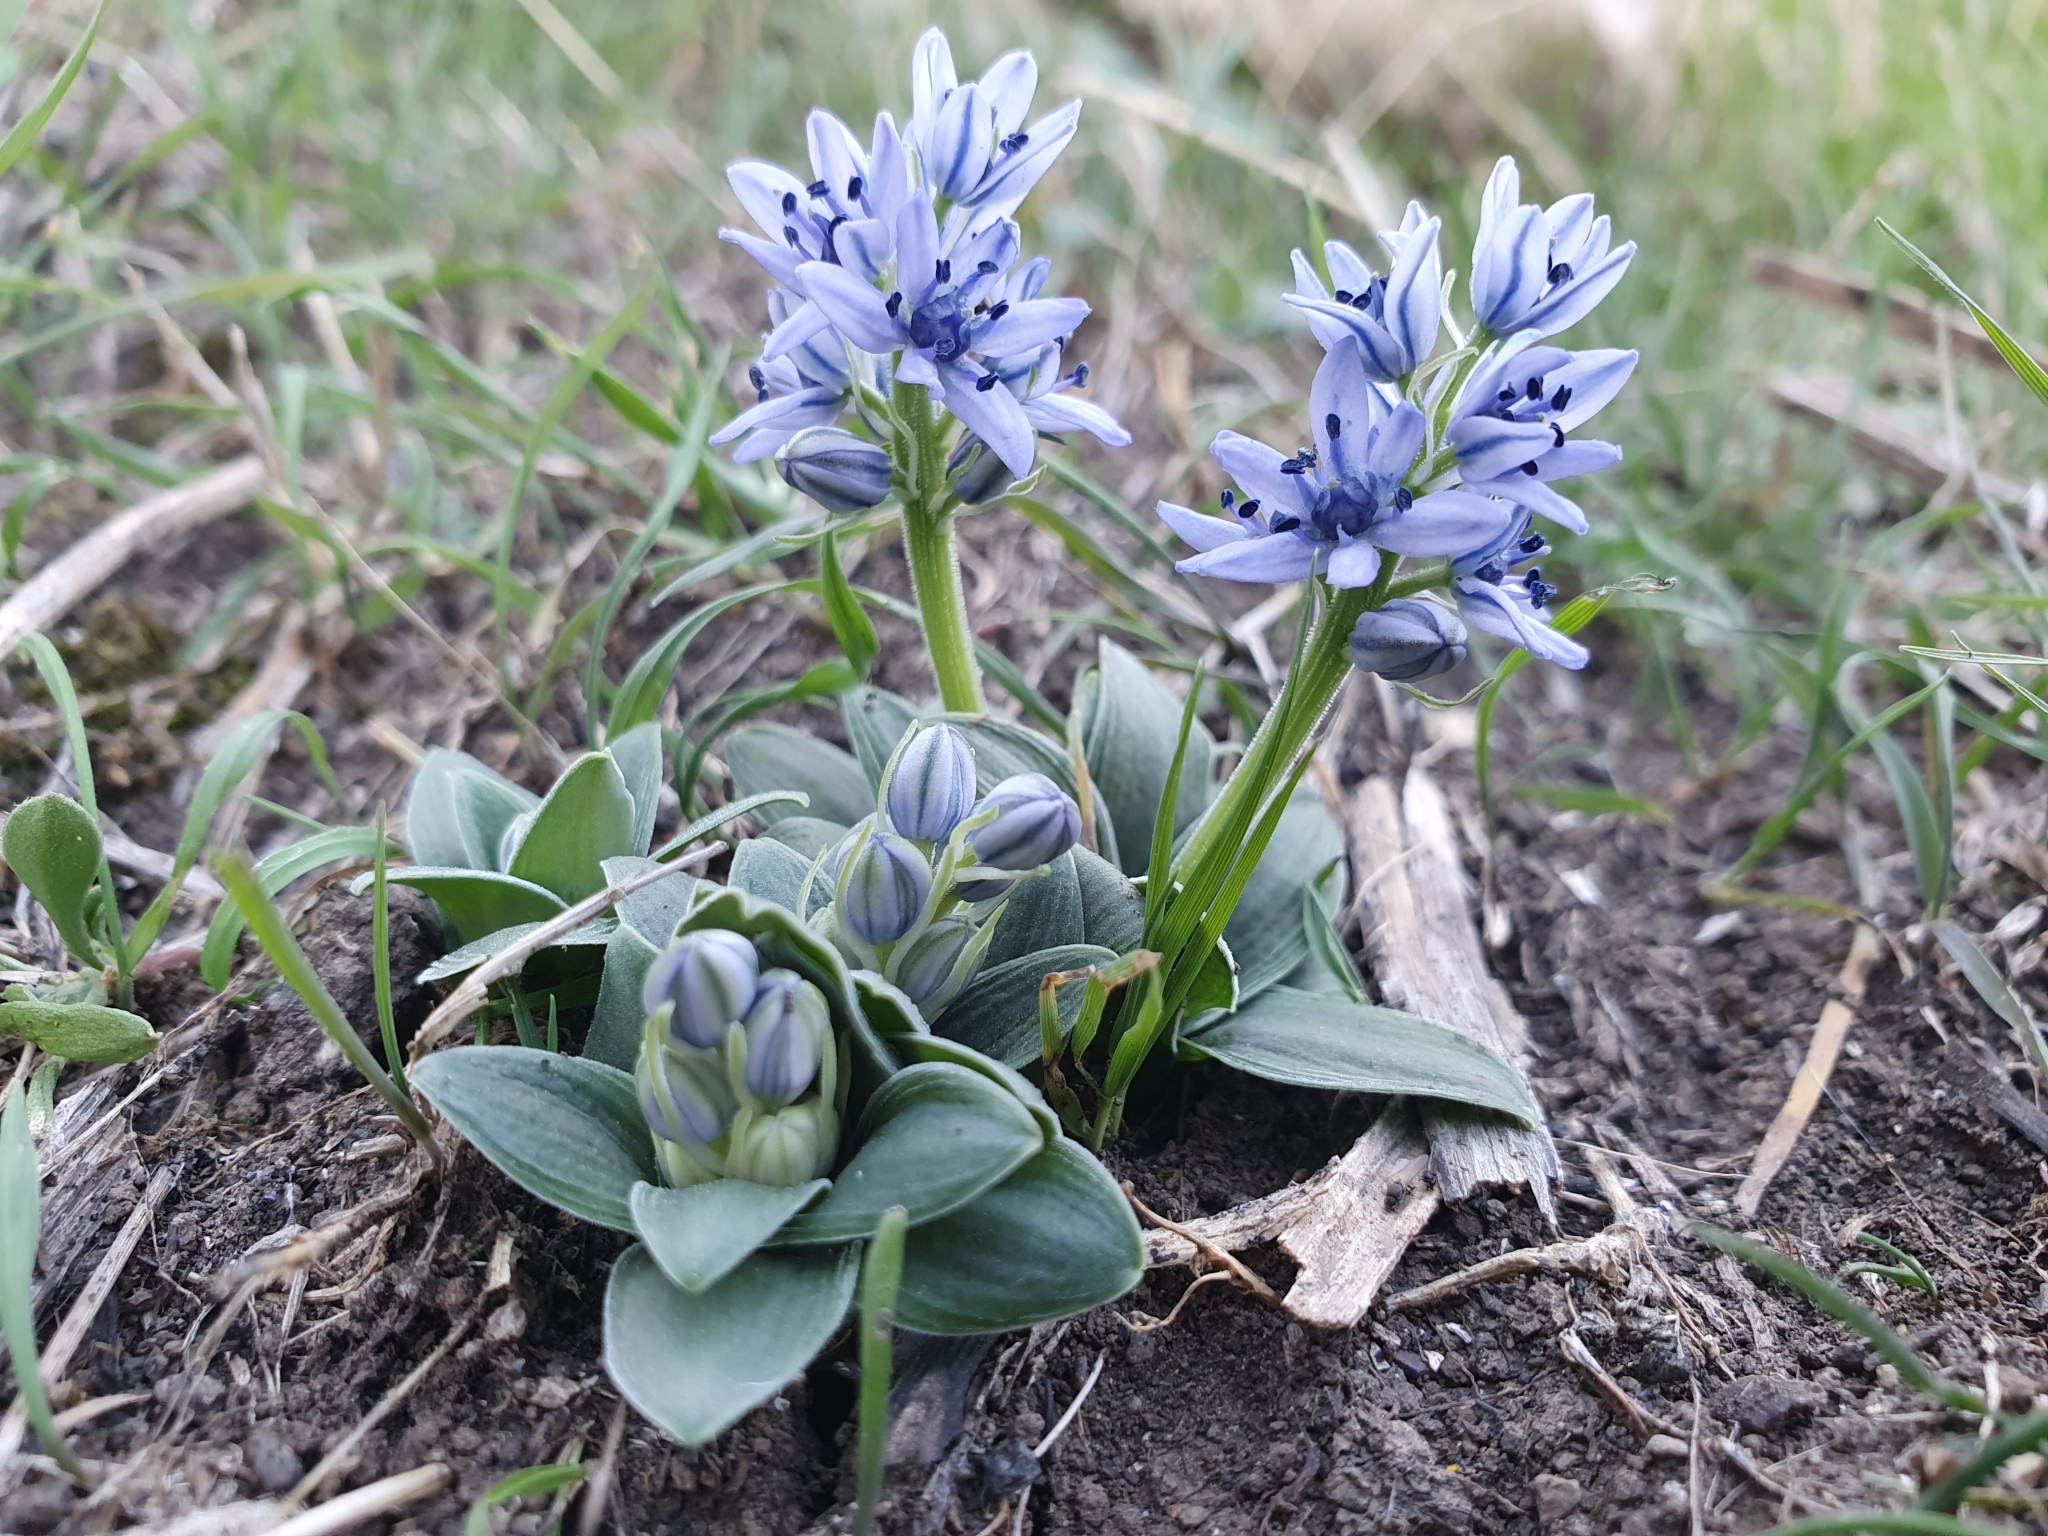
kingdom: Plantae
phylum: Tracheophyta
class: Liliopsida
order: Asparagales
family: Asparagaceae
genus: Hyacinthoides
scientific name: Hyacinthoides lingulata
